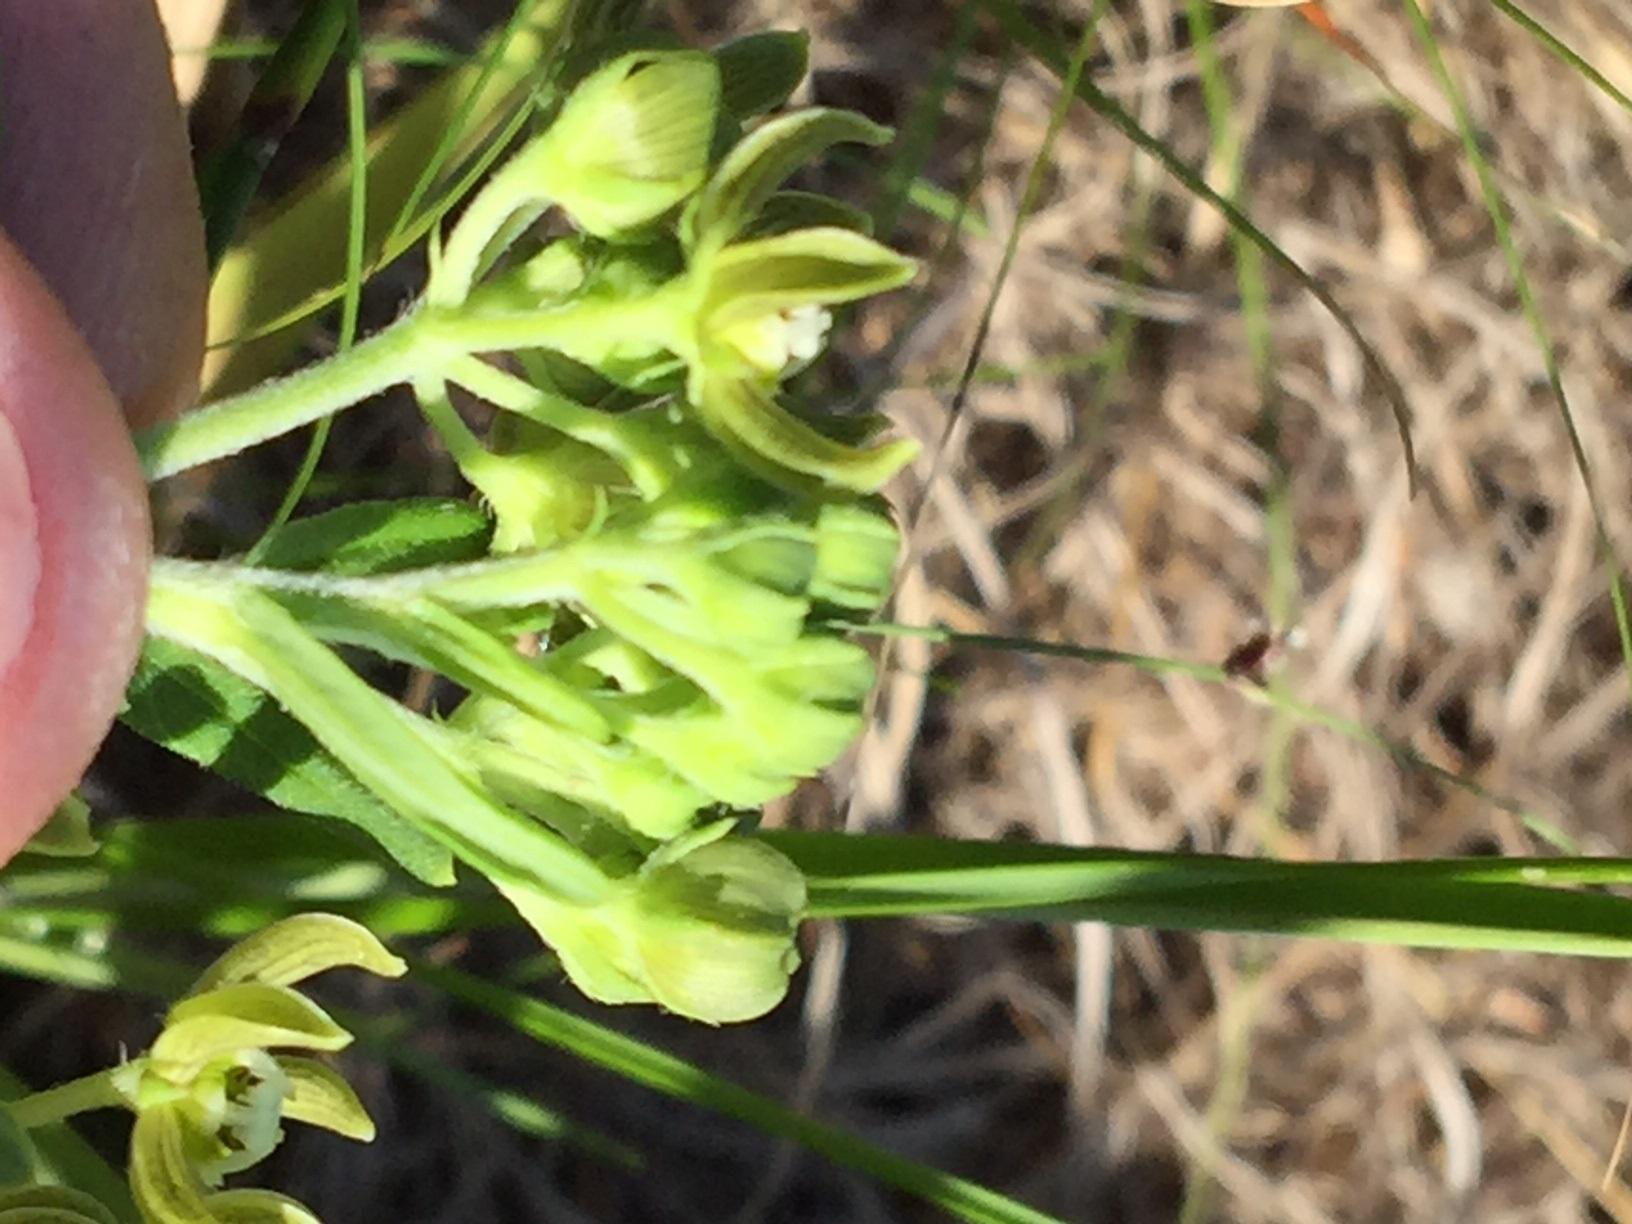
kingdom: Plantae
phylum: Tracheophyta
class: Magnoliopsida
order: Gentianales
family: Apocynaceae
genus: Schizoglossum
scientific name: Schizoglossum cordifolium
